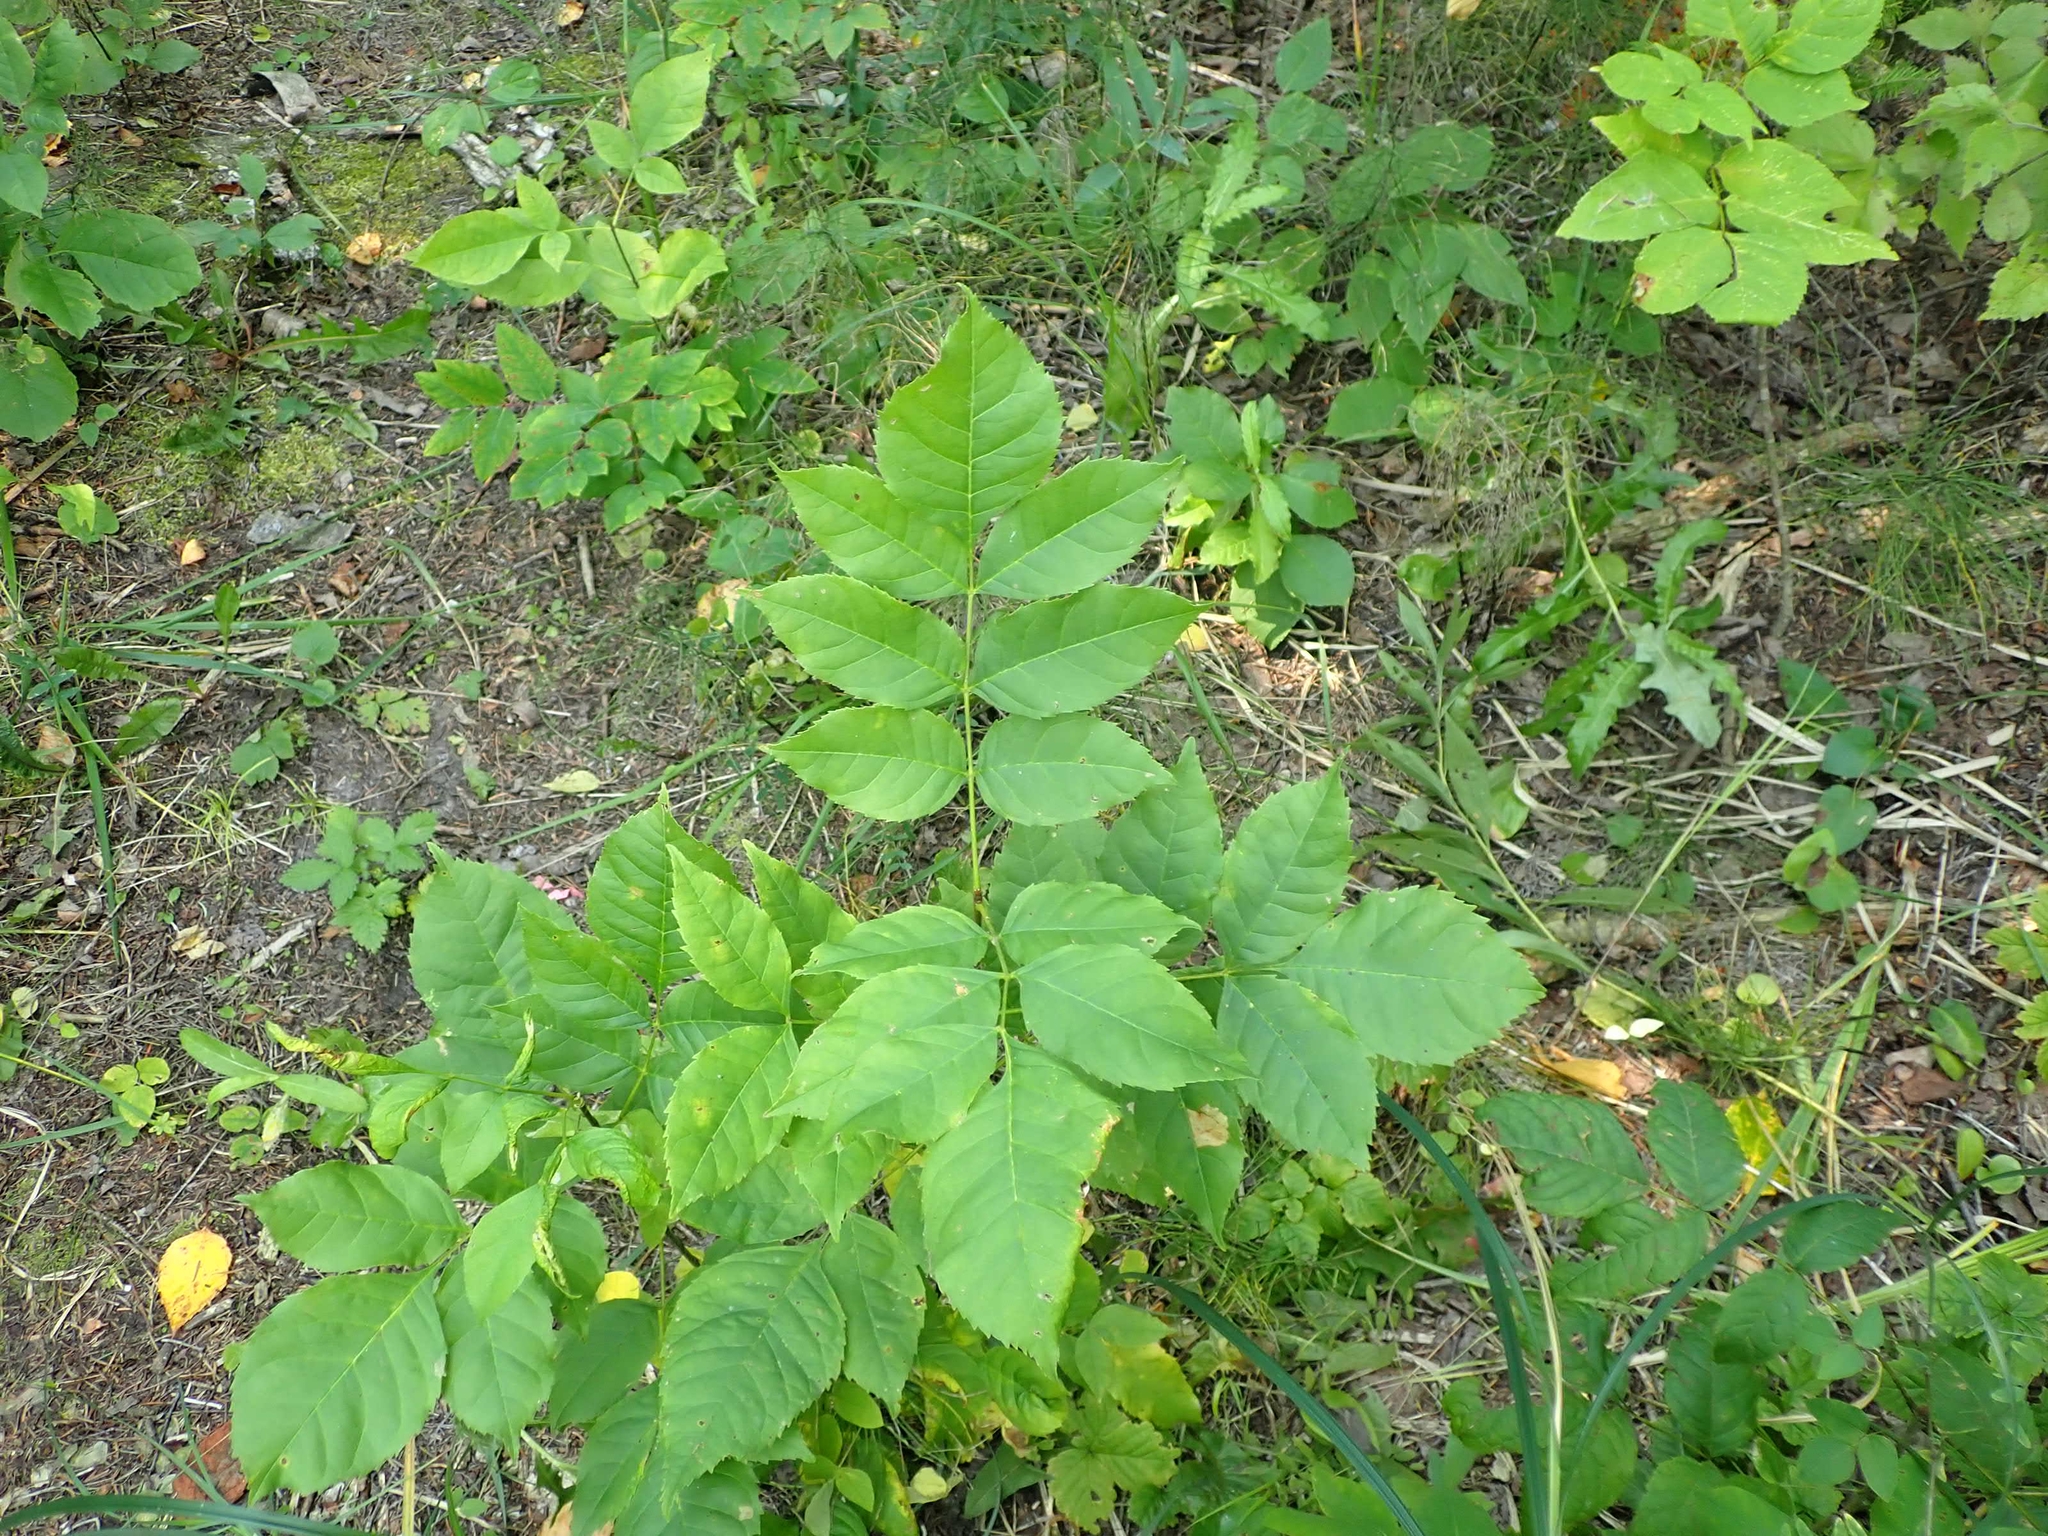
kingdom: Plantae
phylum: Tracheophyta
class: Magnoliopsida
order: Lamiales
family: Oleaceae
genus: Fraxinus
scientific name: Fraxinus pennsylvanica
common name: Green ash
